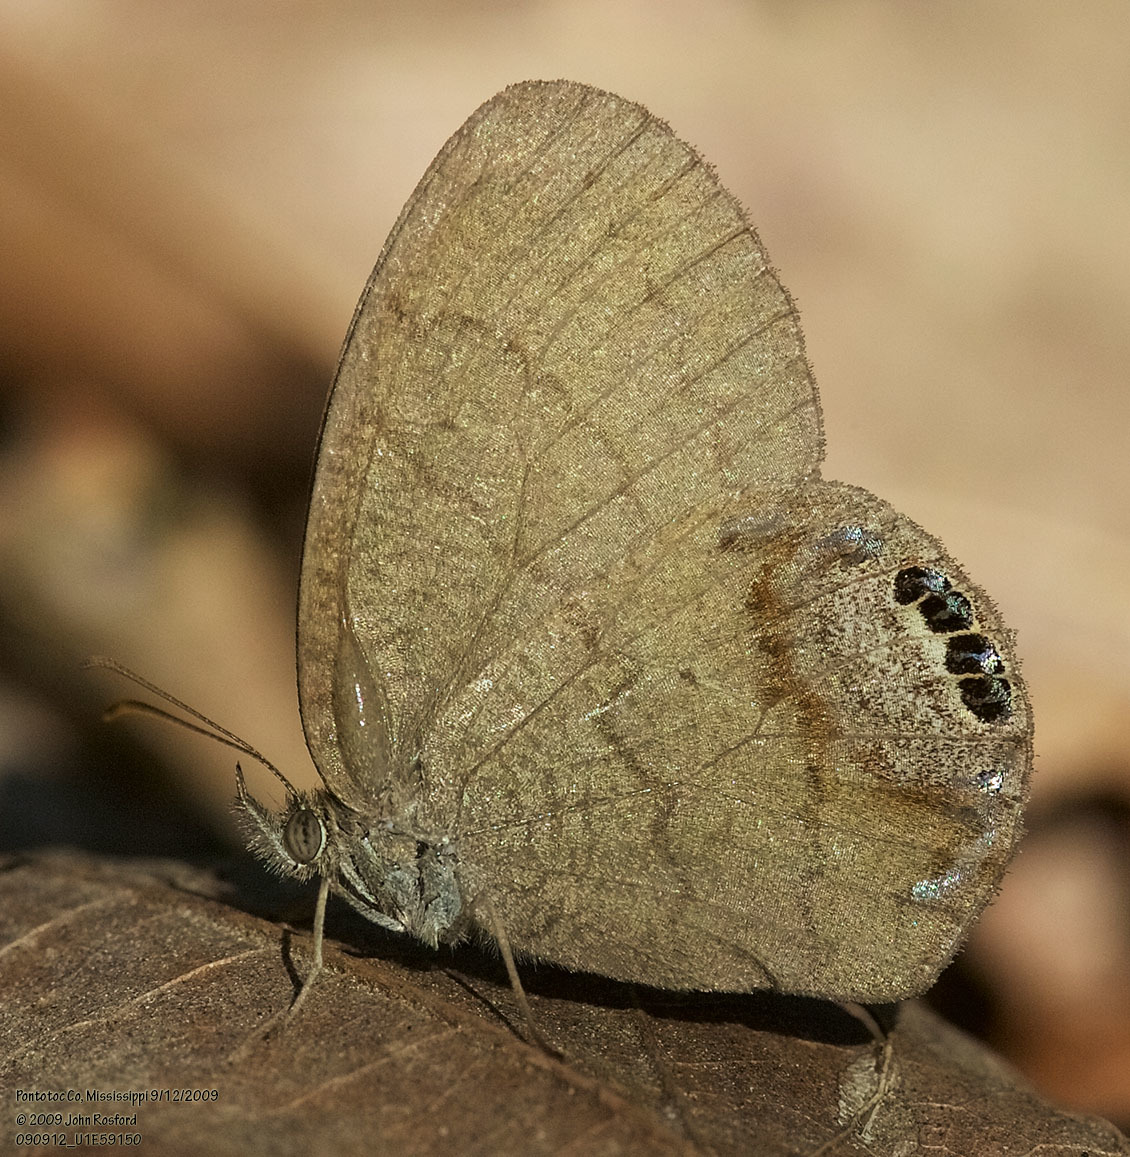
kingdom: Animalia
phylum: Arthropoda
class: Insecta
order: Lepidoptera
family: Nymphalidae
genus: Euptychia
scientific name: Euptychia cornelius
